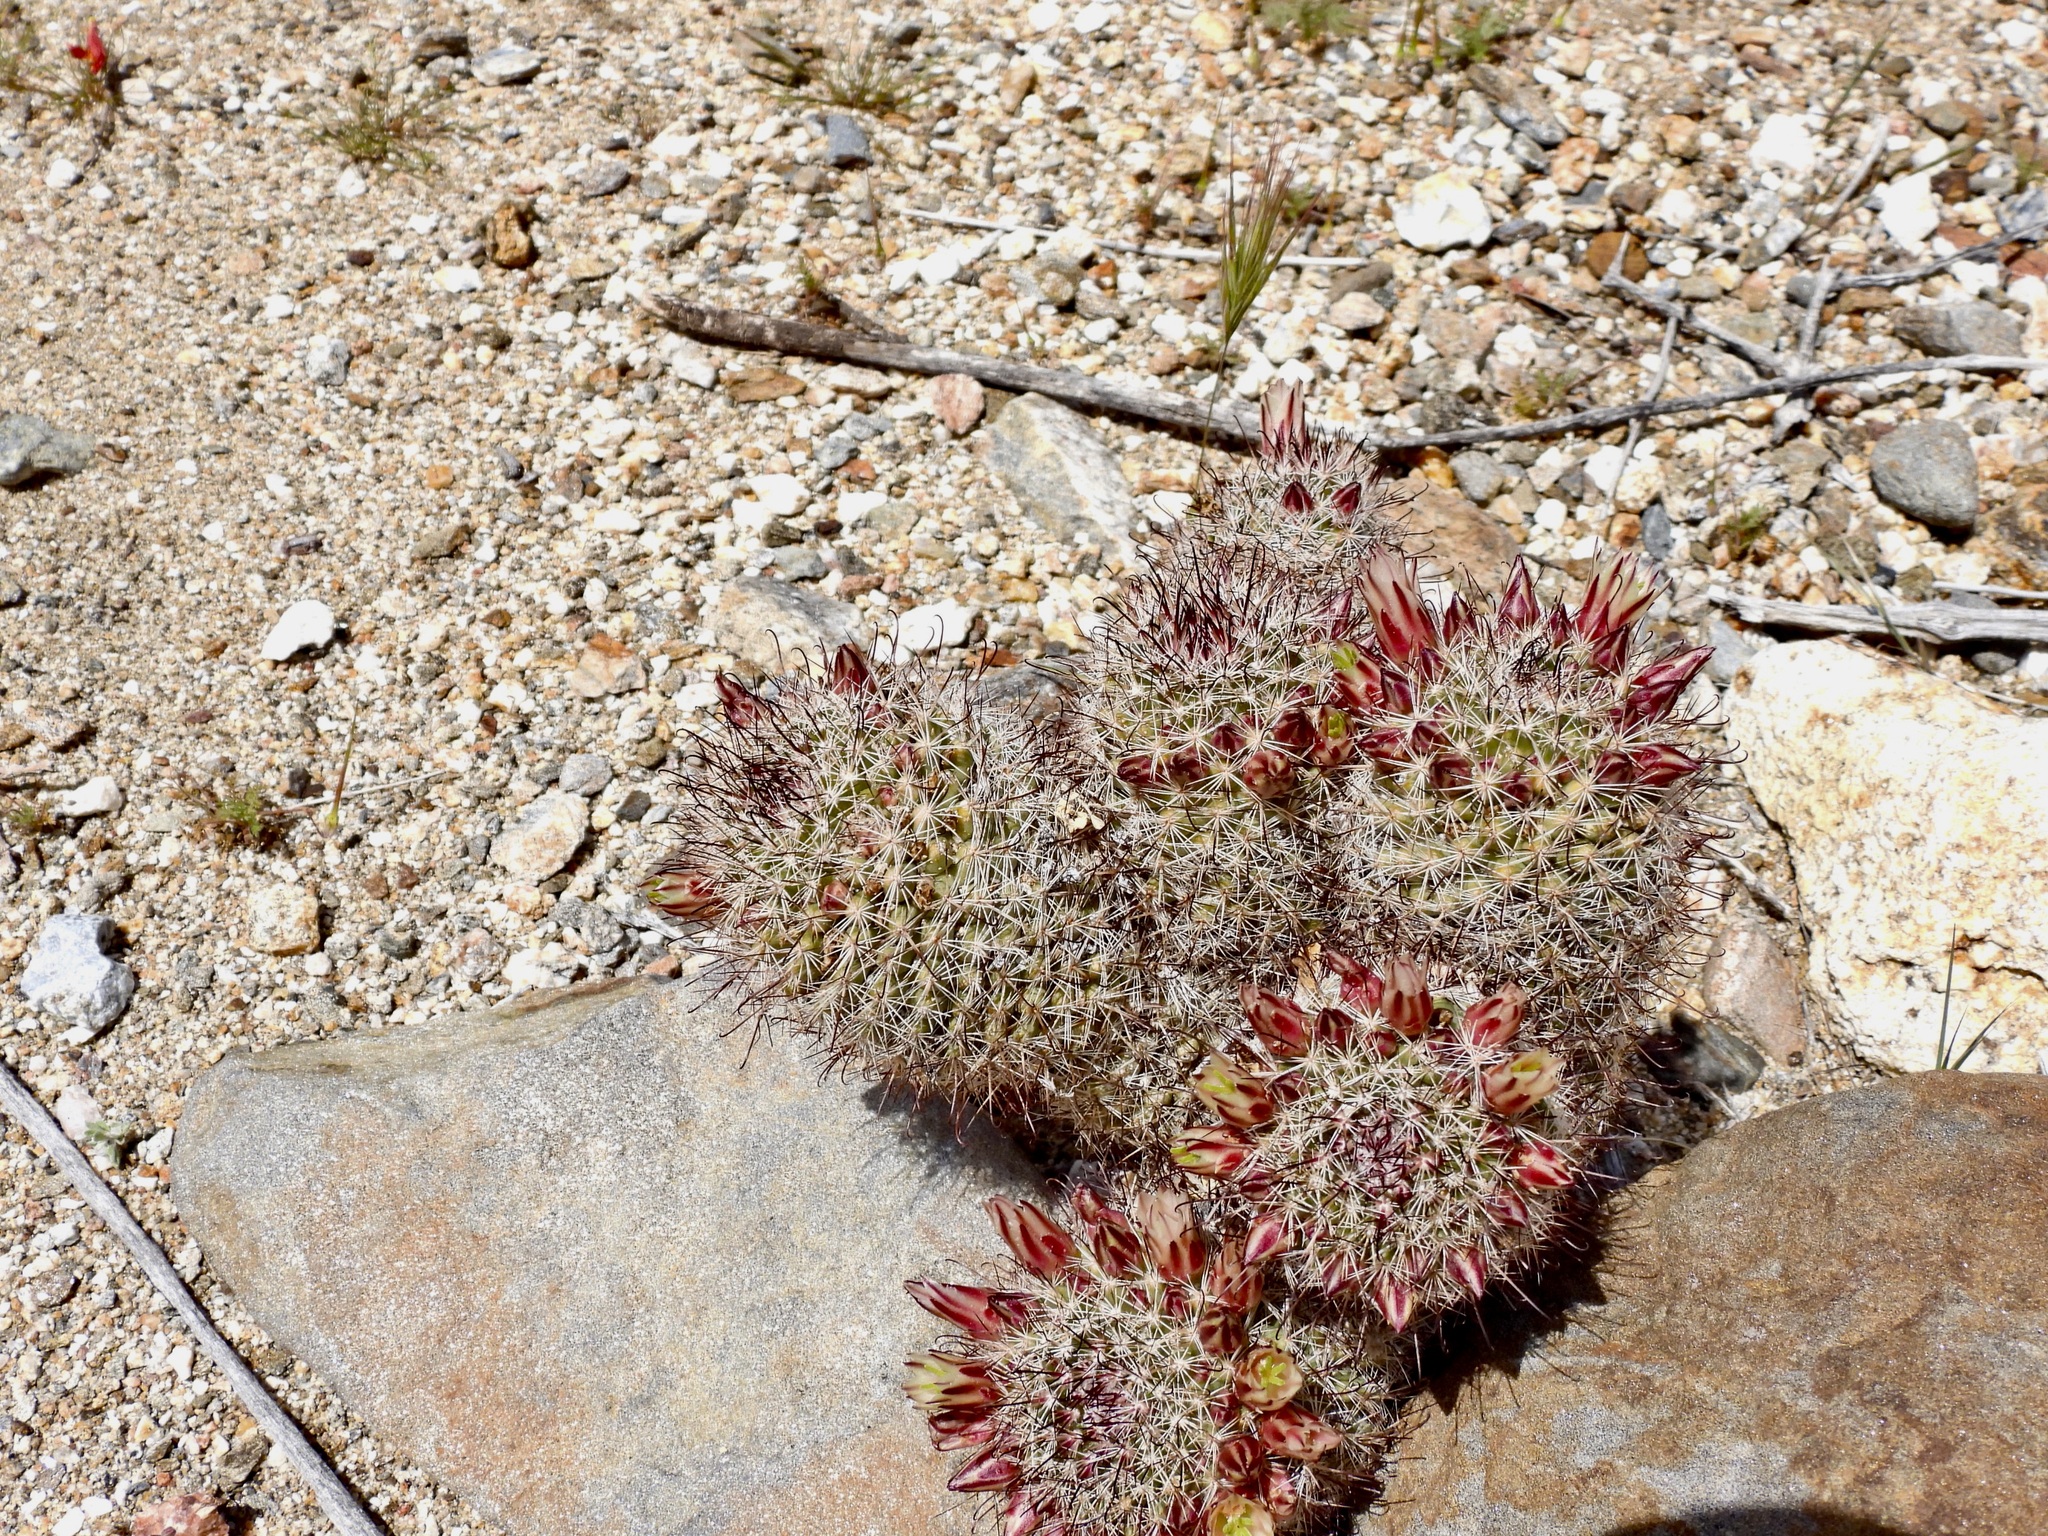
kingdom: Plantae
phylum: Tracheophyta
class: Magnoliopsida
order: Caryophyllales
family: Cactaceae
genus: Cochemiea
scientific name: Cochemiea dioica
